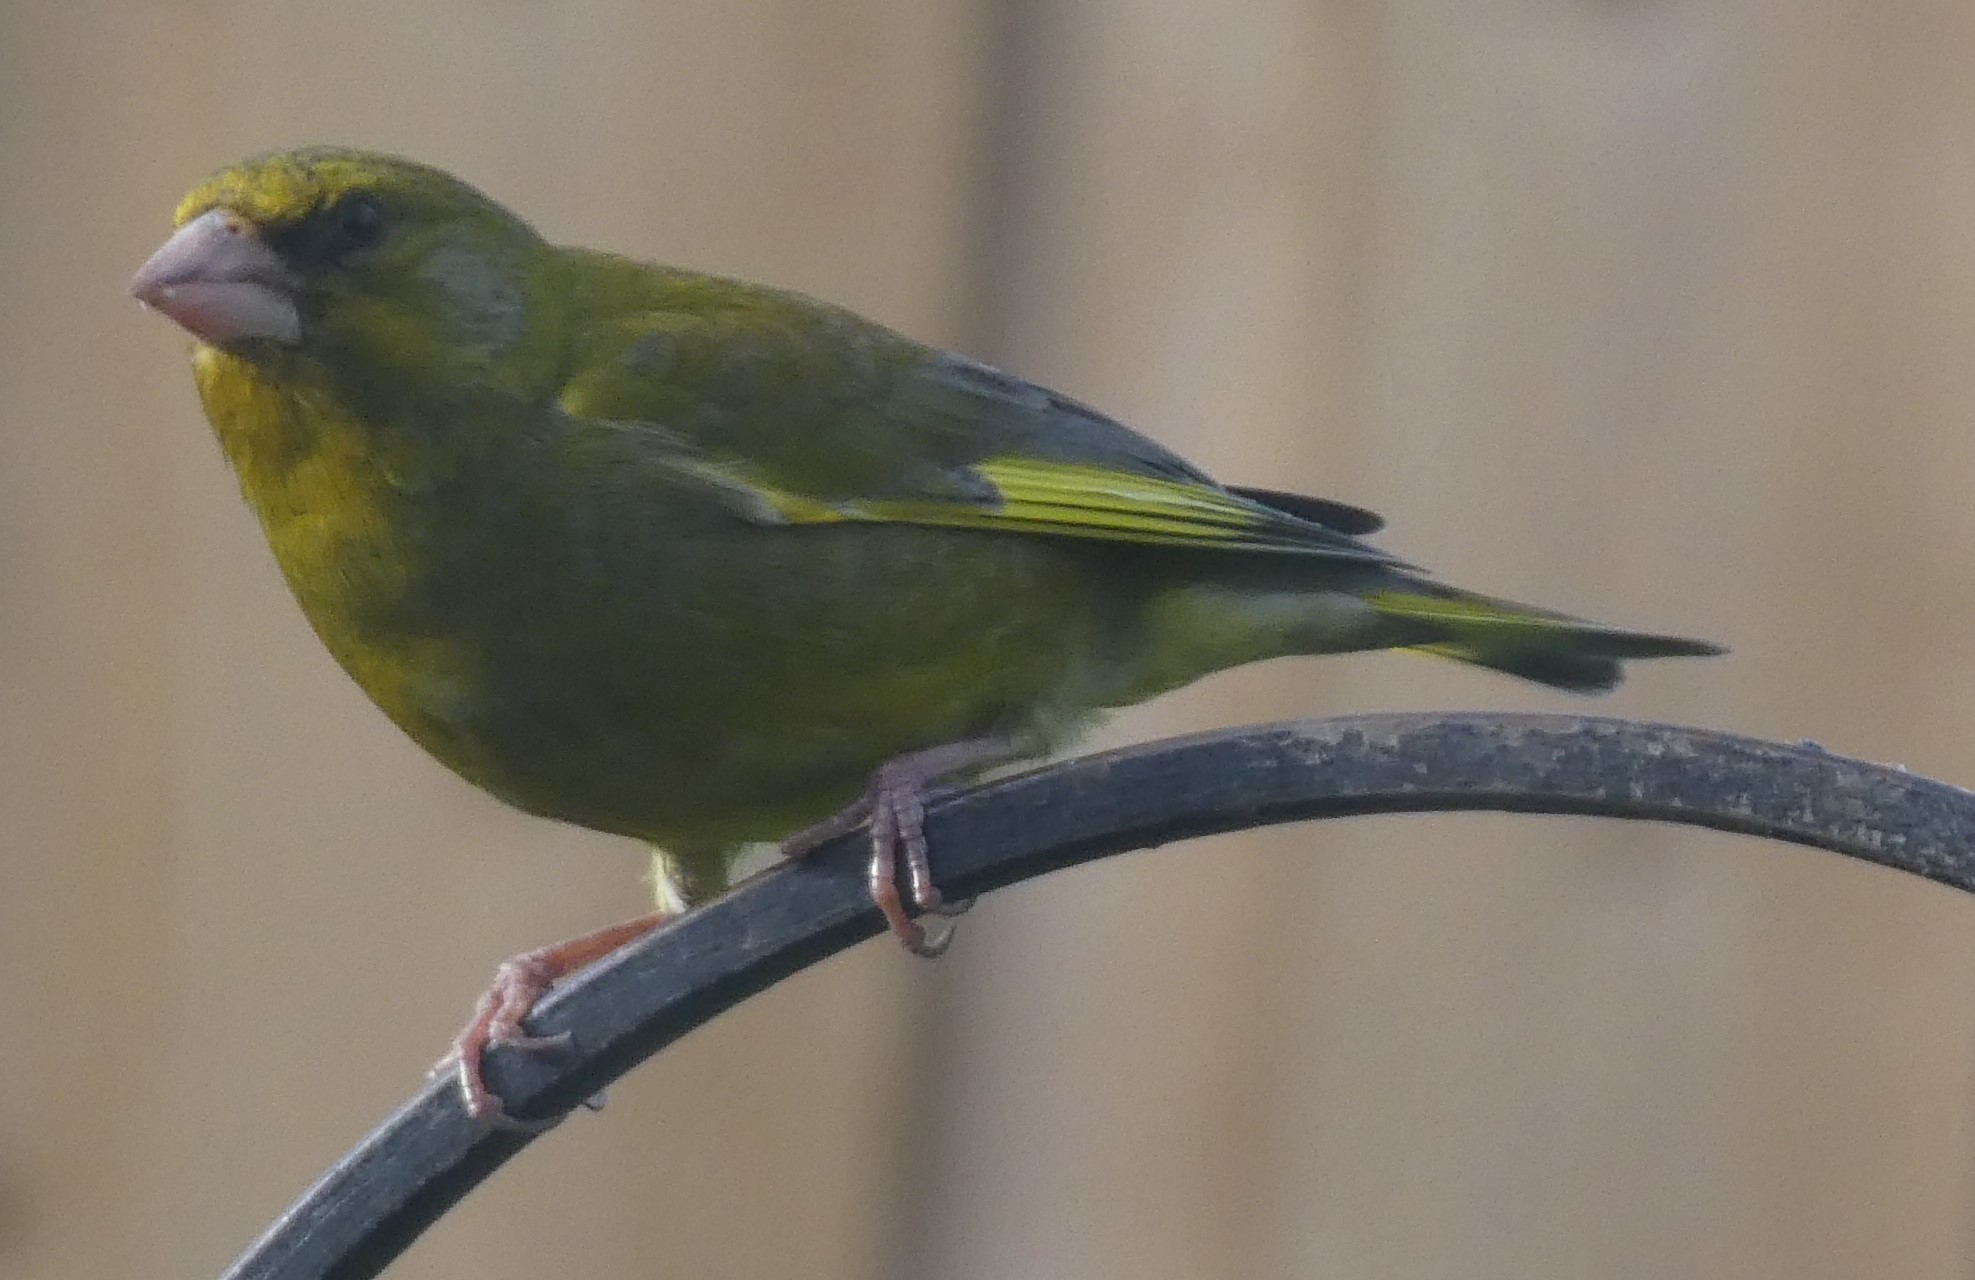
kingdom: Plantae
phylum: Tracheophyta
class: Liliopsida
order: Poales
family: Poaceae
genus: Chloris
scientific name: Chloris chloris
